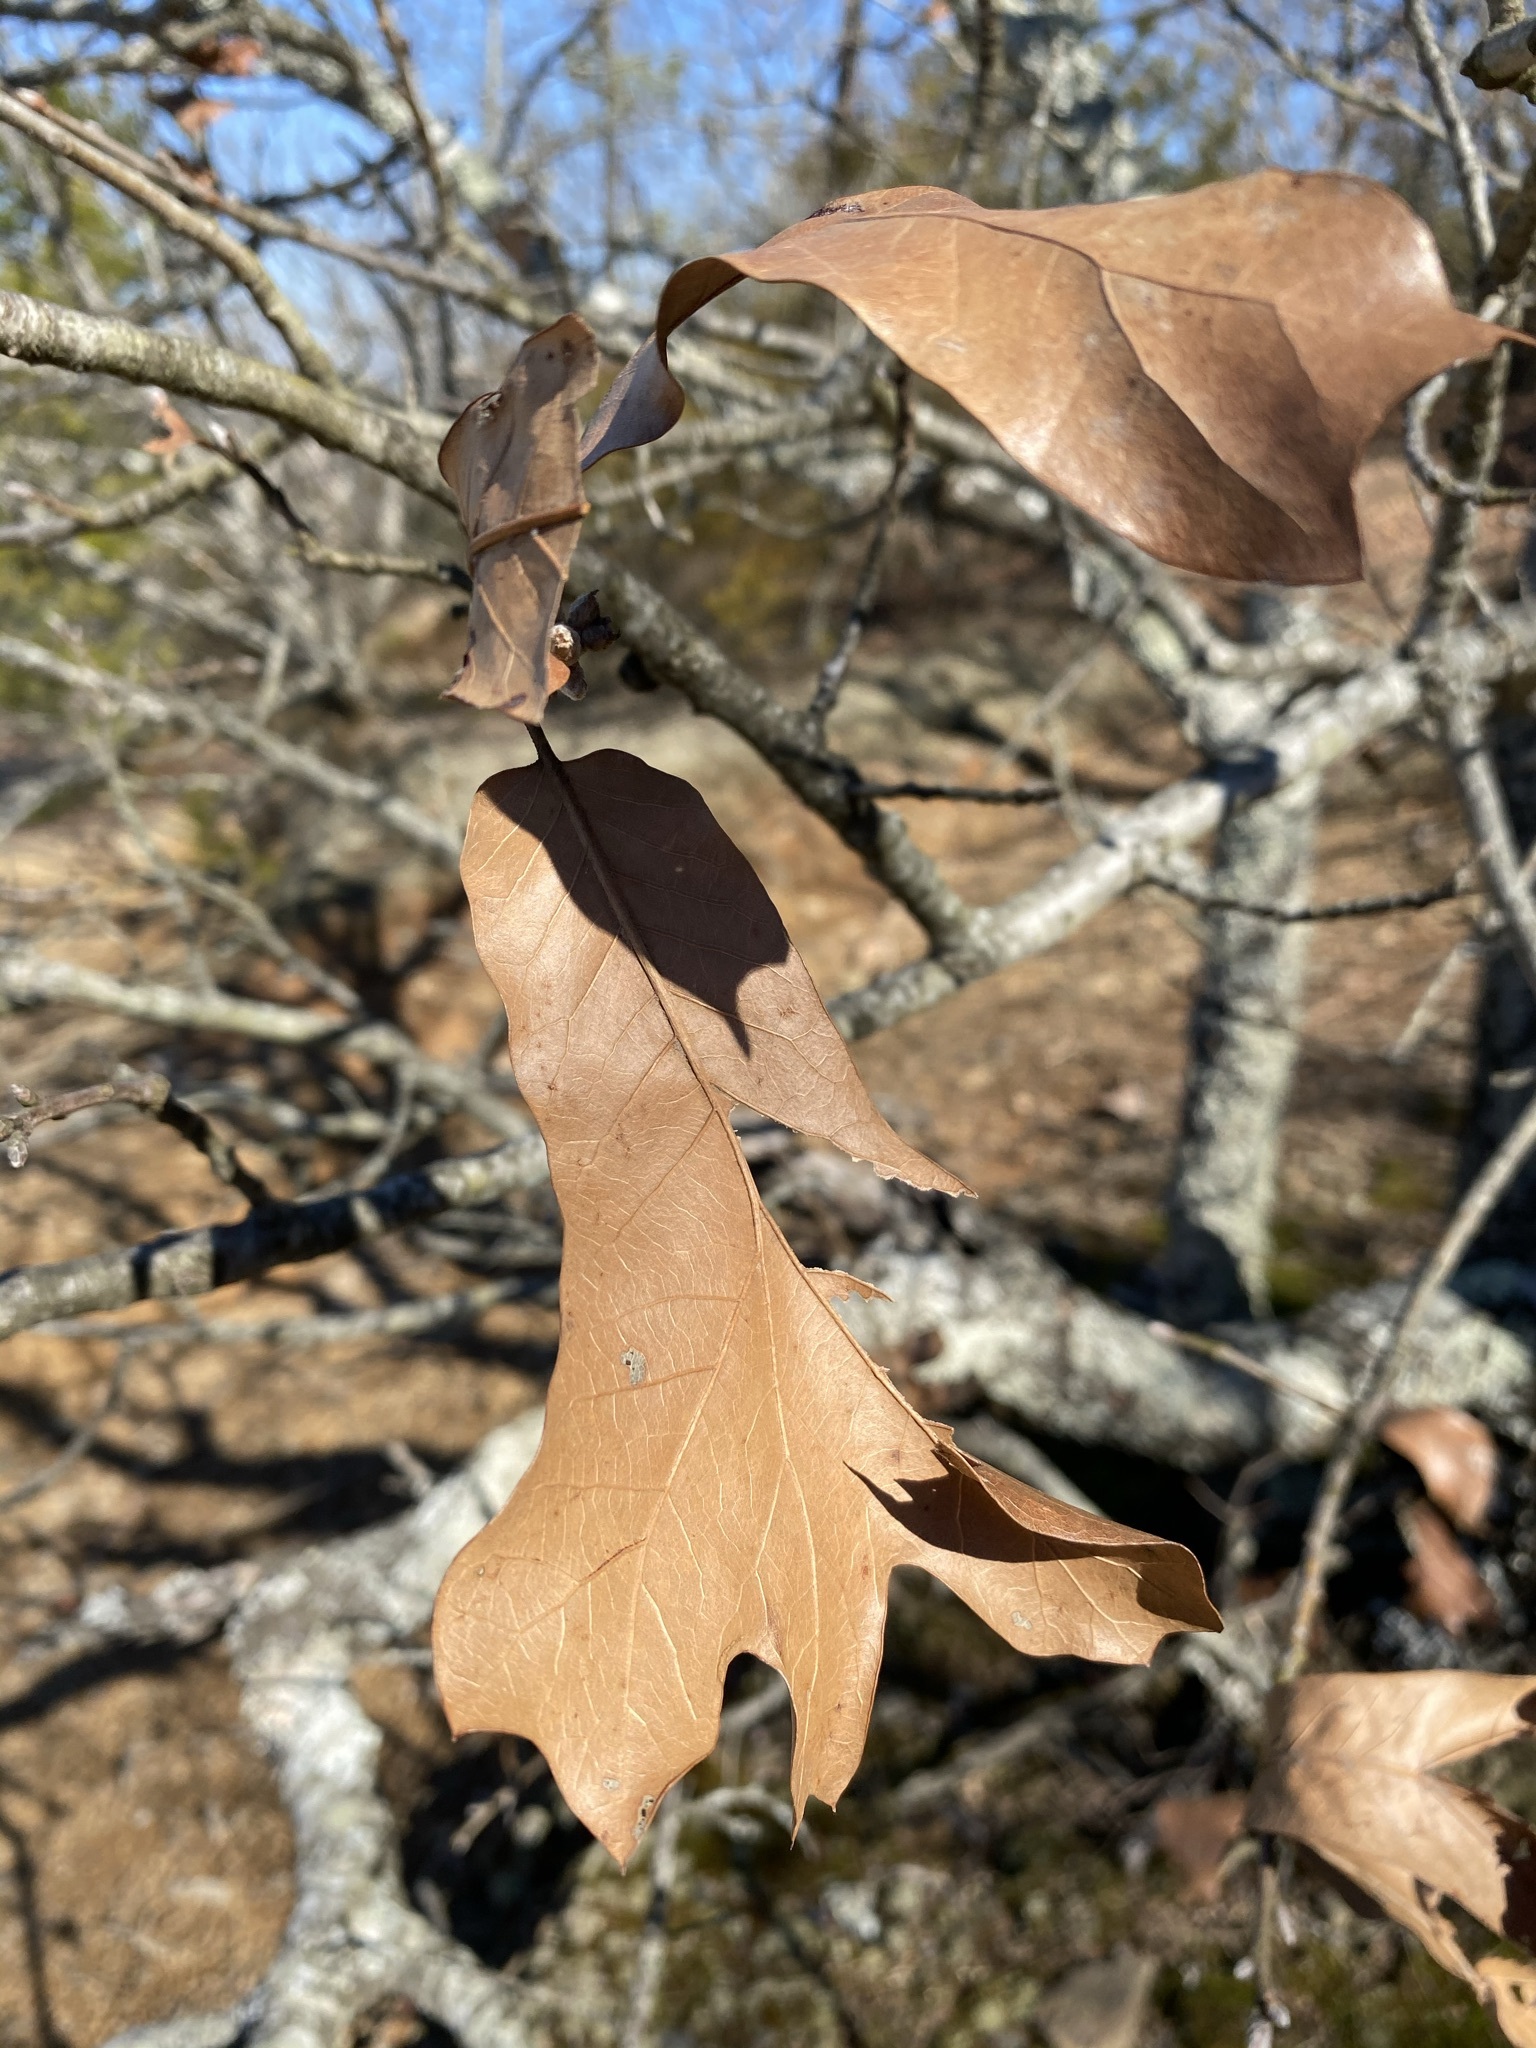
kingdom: Plantae
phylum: Tracheophyta
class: Magnoliopsida
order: Fagales
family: Fagaceae
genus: Quercus
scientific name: Quercus marilandica
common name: Blackjack oak
